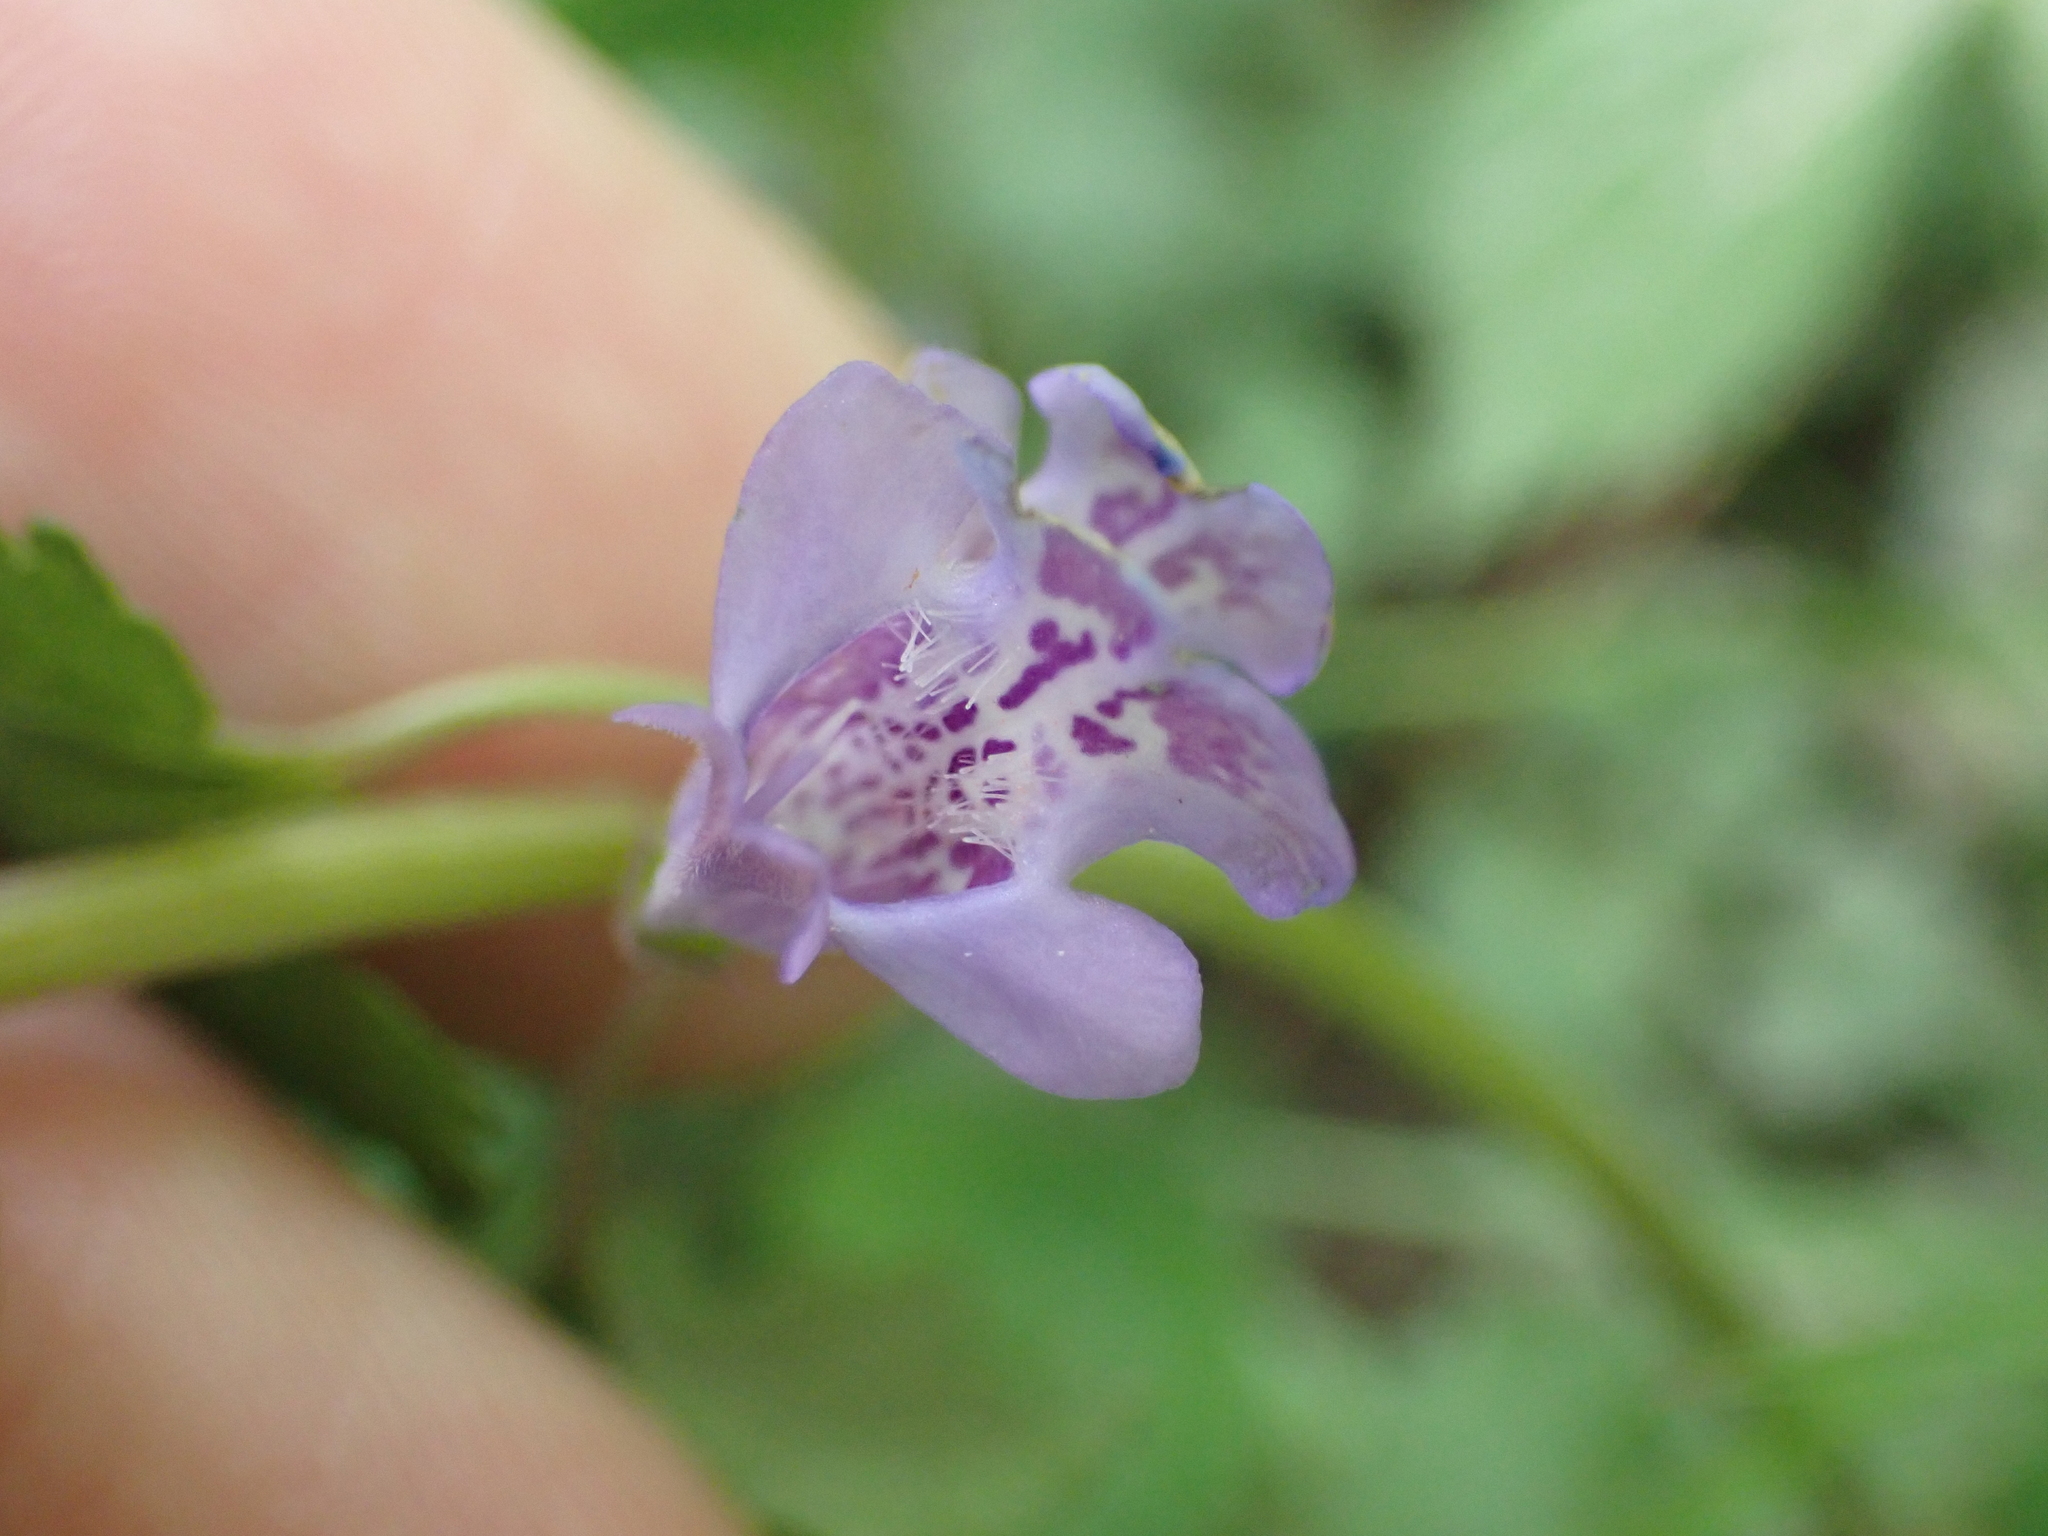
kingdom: Plantae
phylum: Tracheophyta
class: Magnoliopsida
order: Lamiales
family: Lamiaceae
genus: Glechoma
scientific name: Glechoma hederacea
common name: Ground ivy
